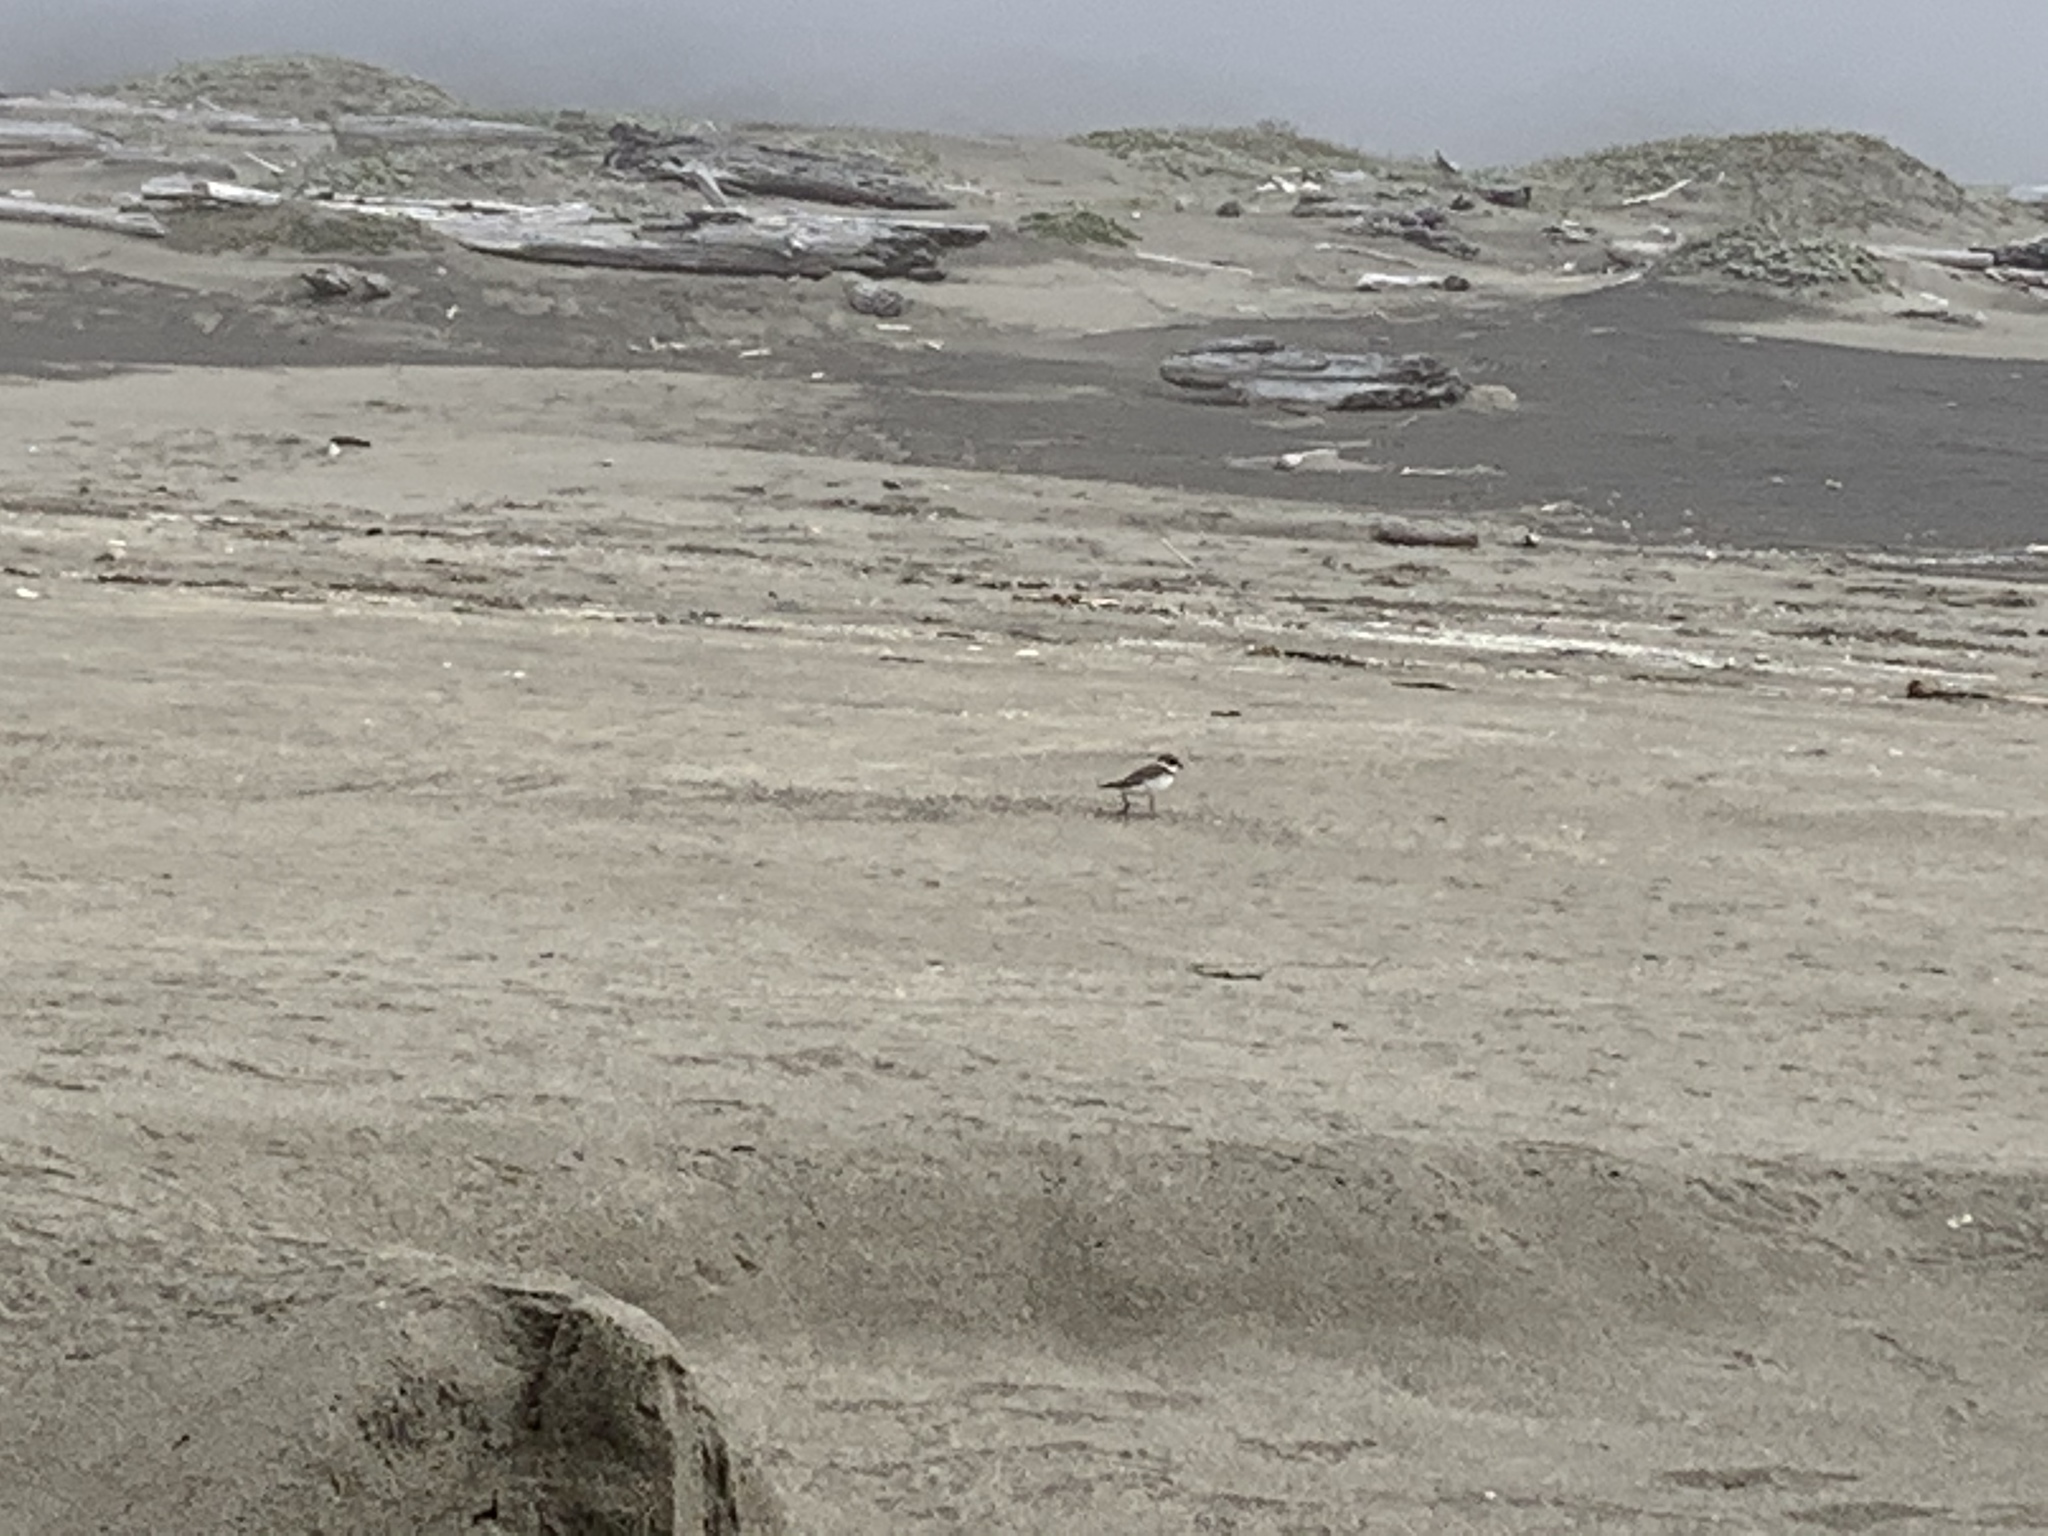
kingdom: Animalia
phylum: Chordata
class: Aves
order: Charadriiformes
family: Charadriidae
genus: Charadrius
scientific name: Charadrius semipalmatus
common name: Semipalmated plover
